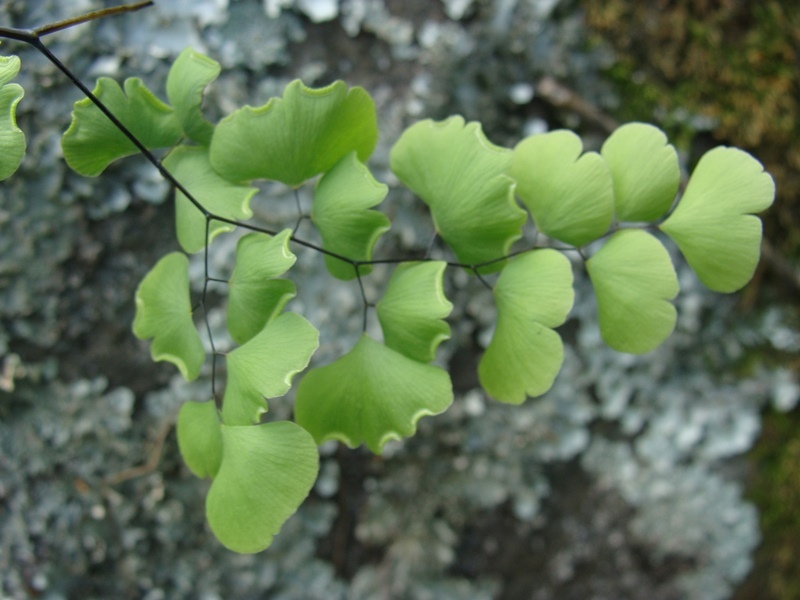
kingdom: Plantae
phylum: Tracheophyta
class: Polypodiopsida
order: Polypodiales
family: Pteridaceae
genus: Adiantum
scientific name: Adiantum braunii
